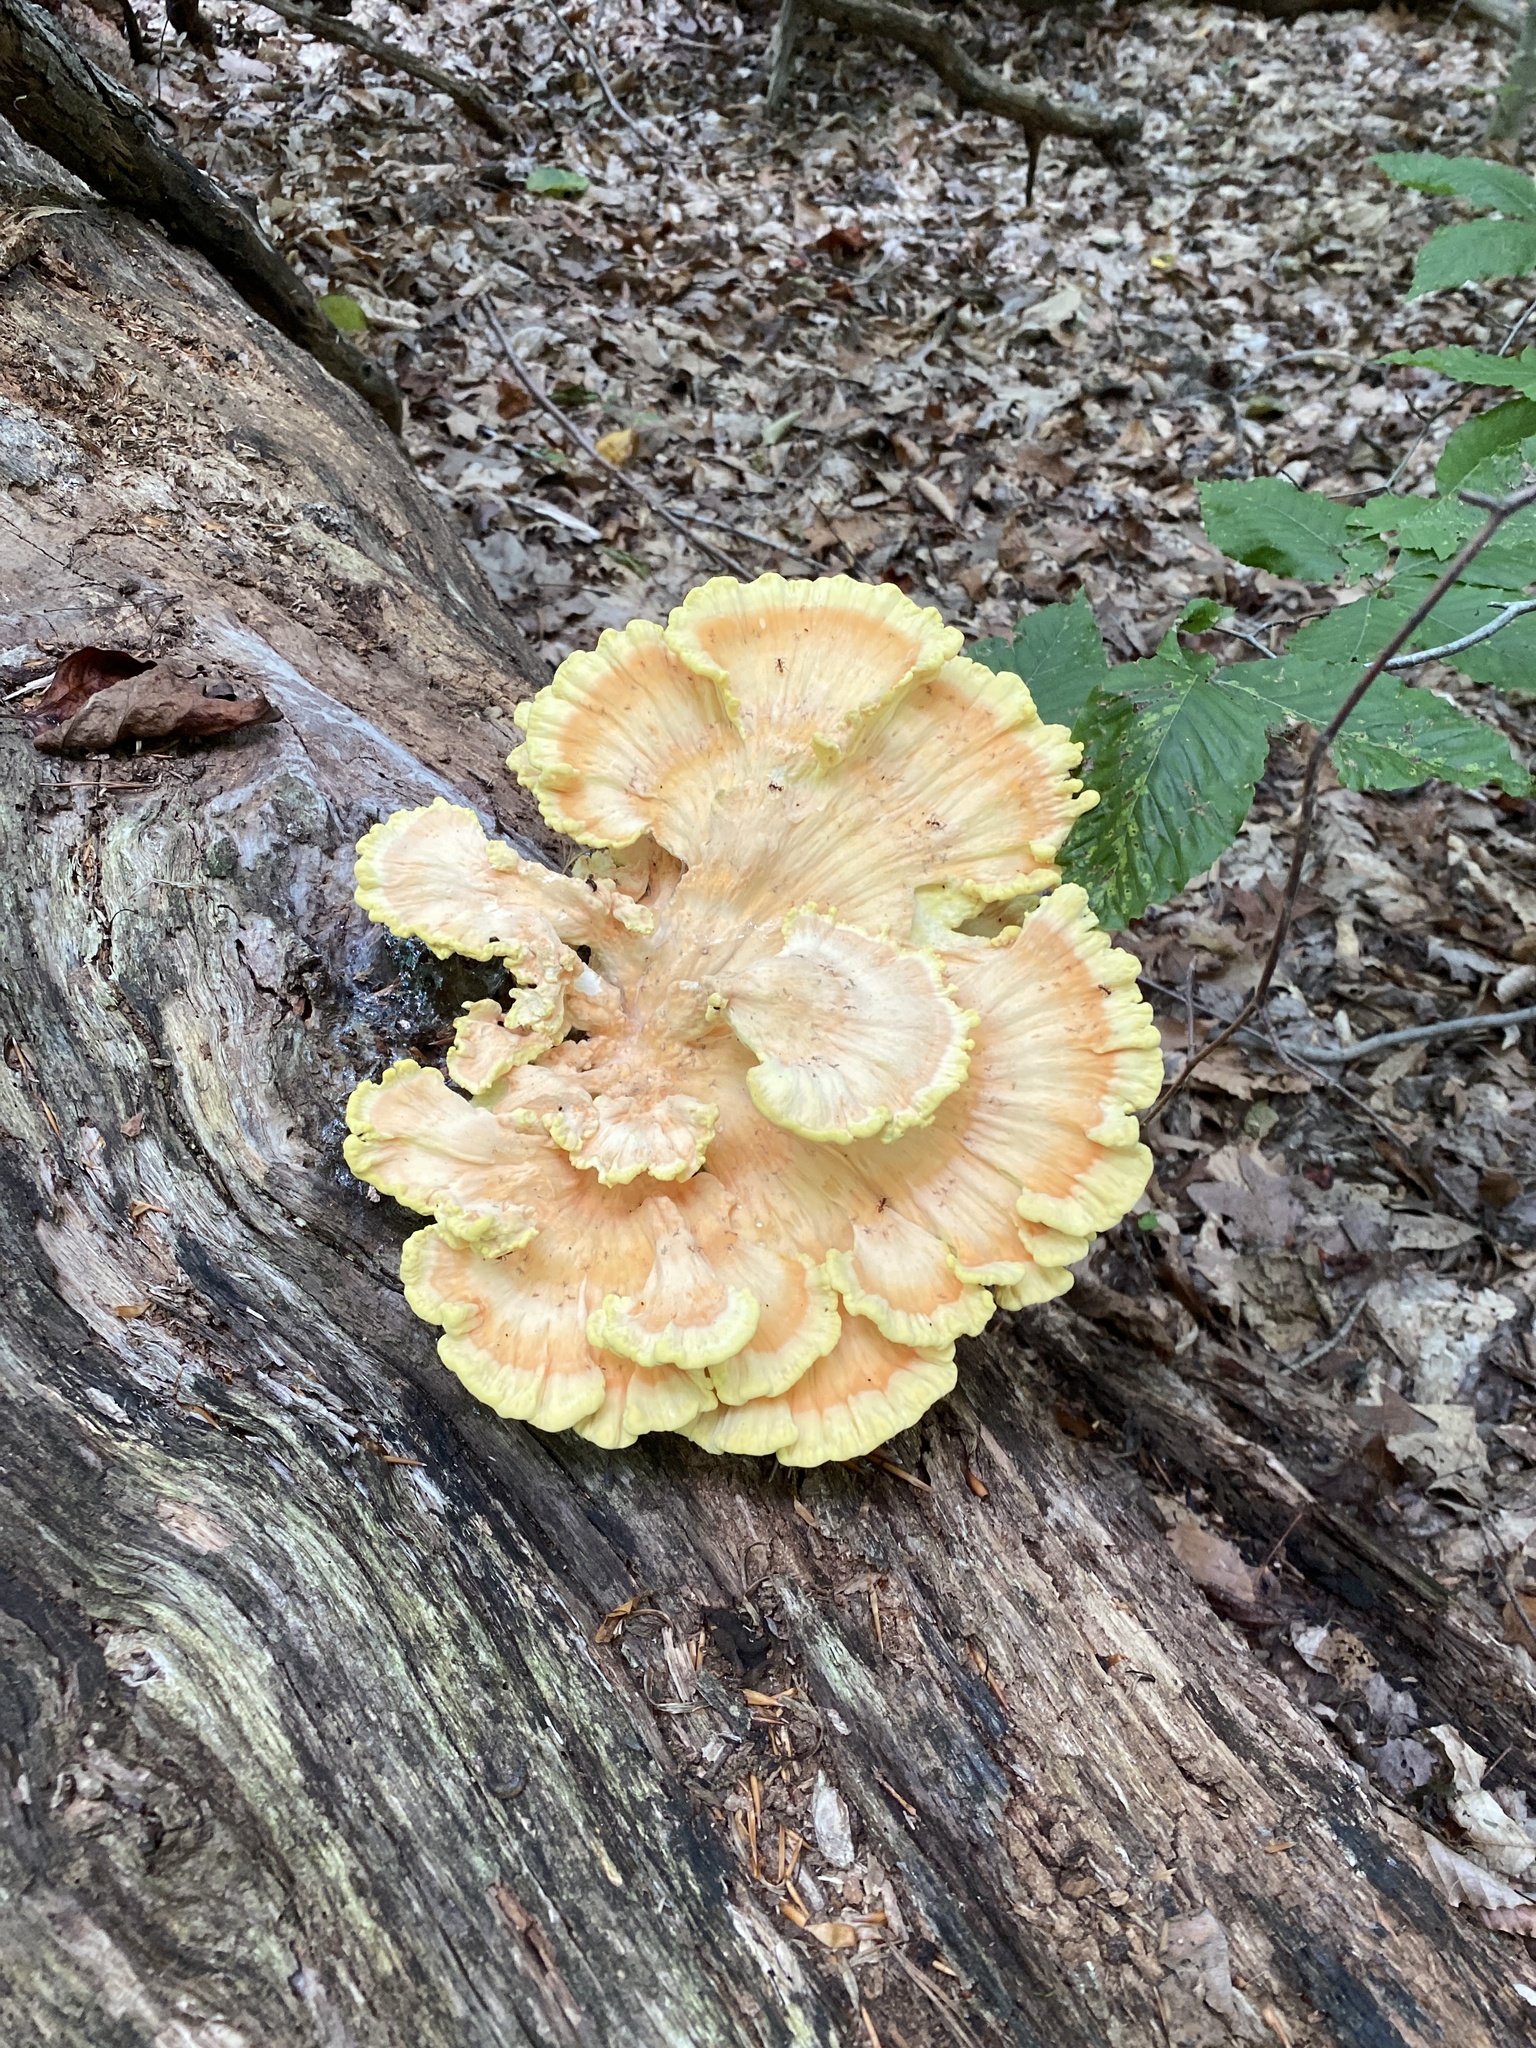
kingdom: Fungi
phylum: Basidiomycota
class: Agaricomycetes
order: Polyporales
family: Laetiporaceae
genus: Laetiporus
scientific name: Laetiporus sulphureus
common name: Chicken of the woods
